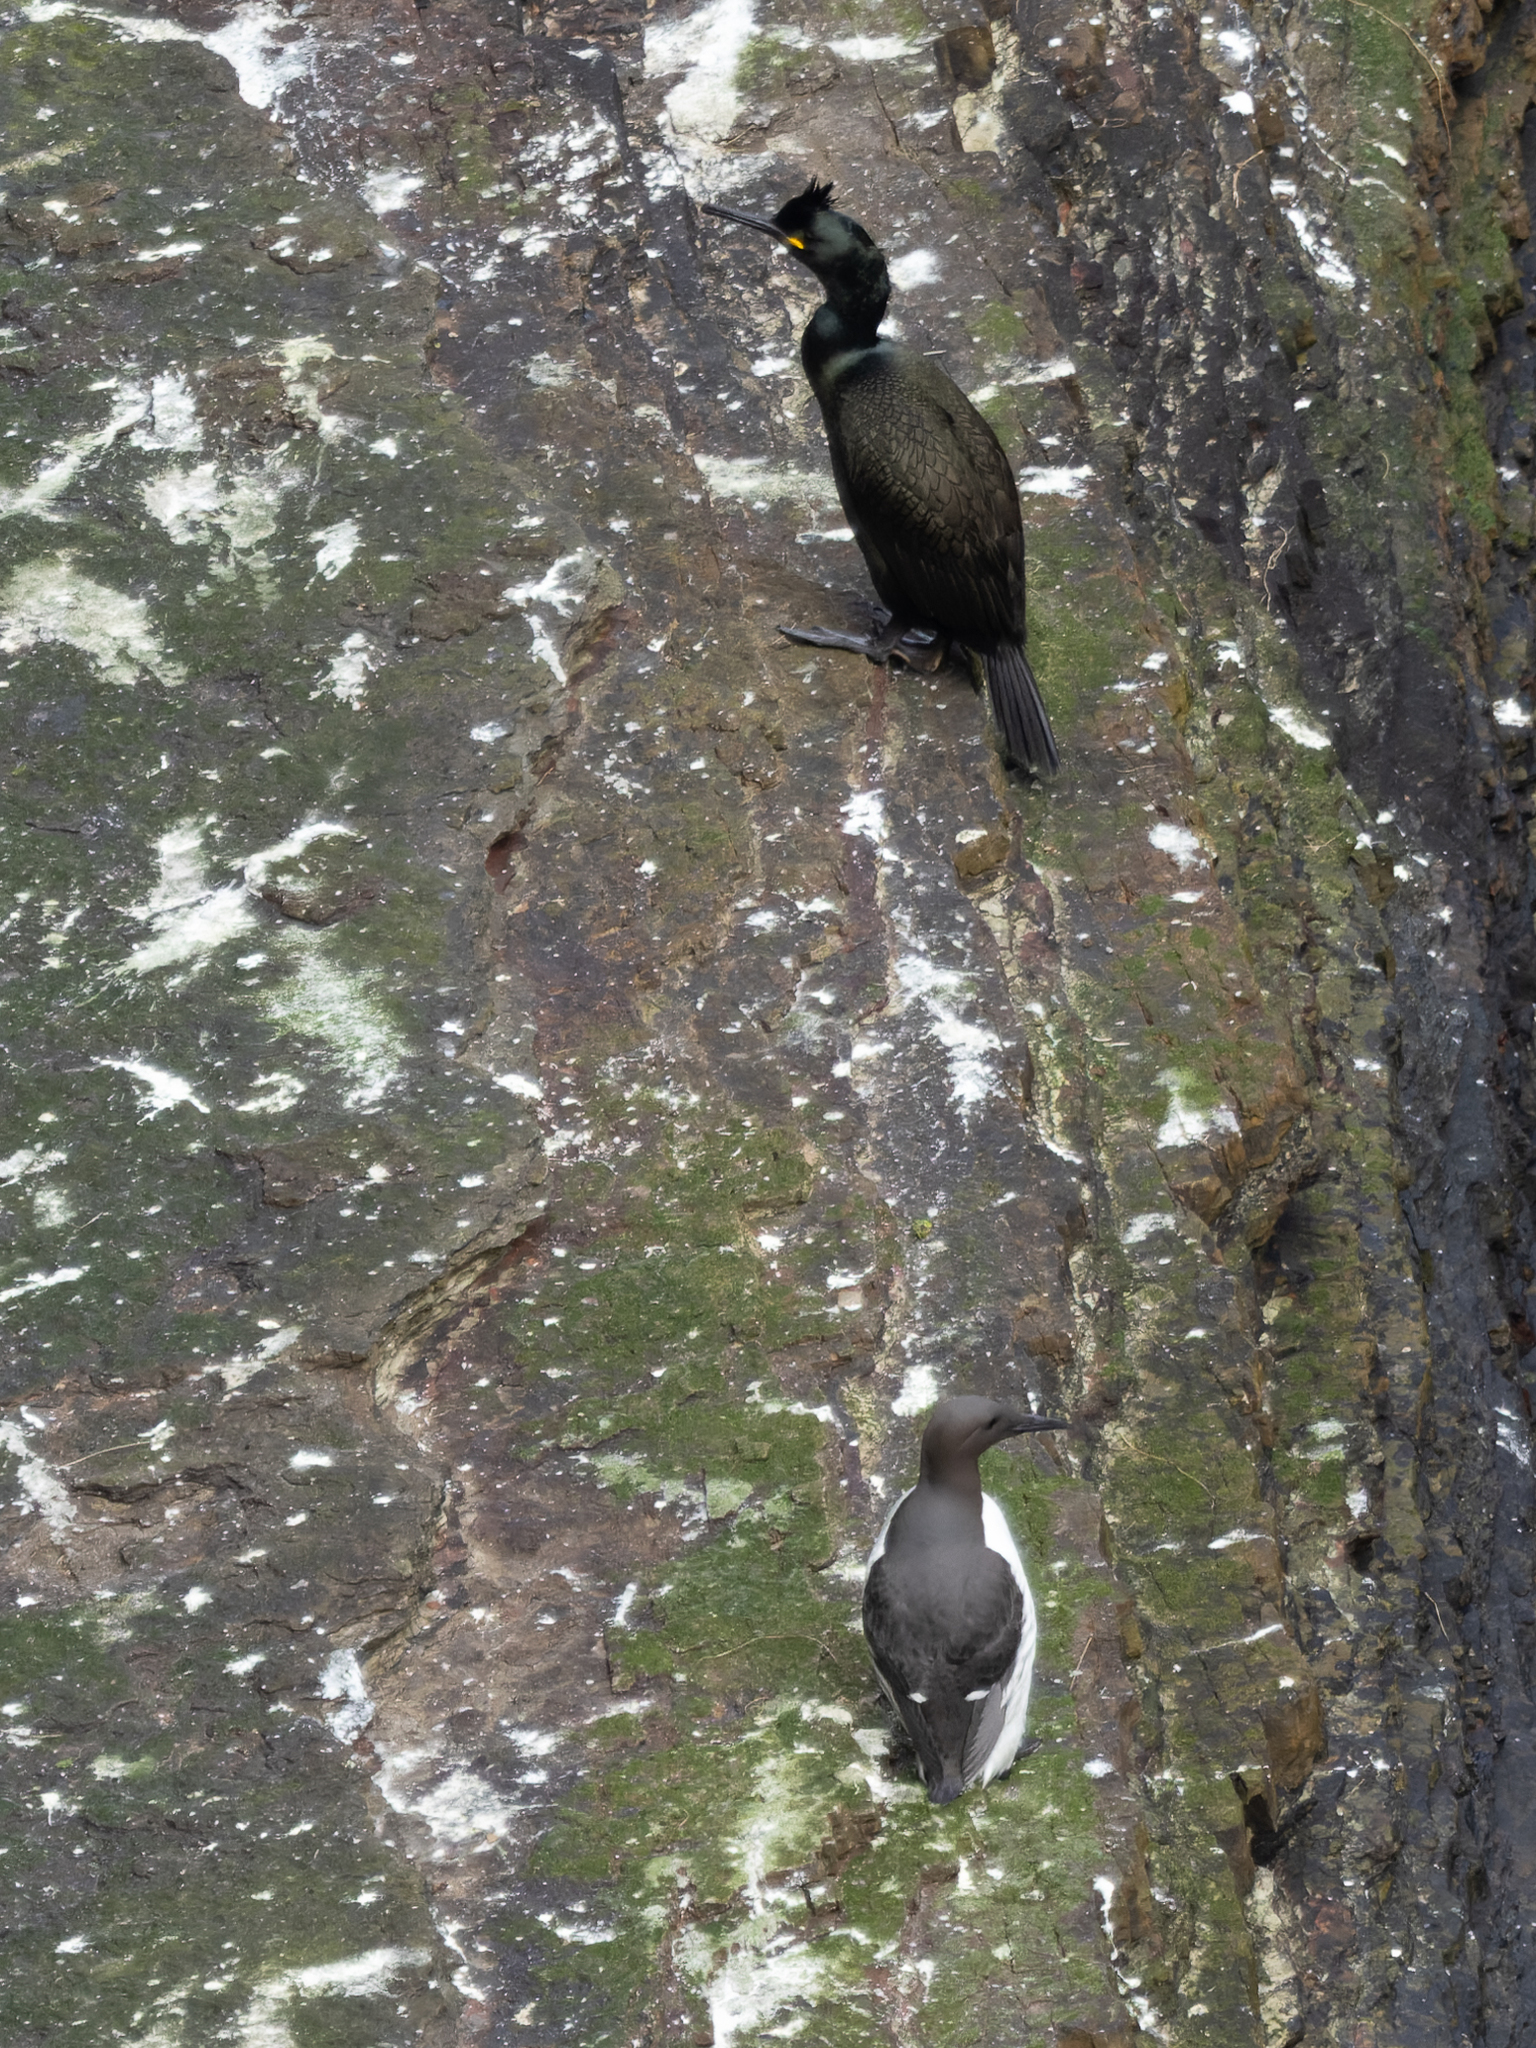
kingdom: Animalia
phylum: Chordata
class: Aves
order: Charadriiformes
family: Alcidae
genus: Uria
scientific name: Uria aalge
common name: Common murre
